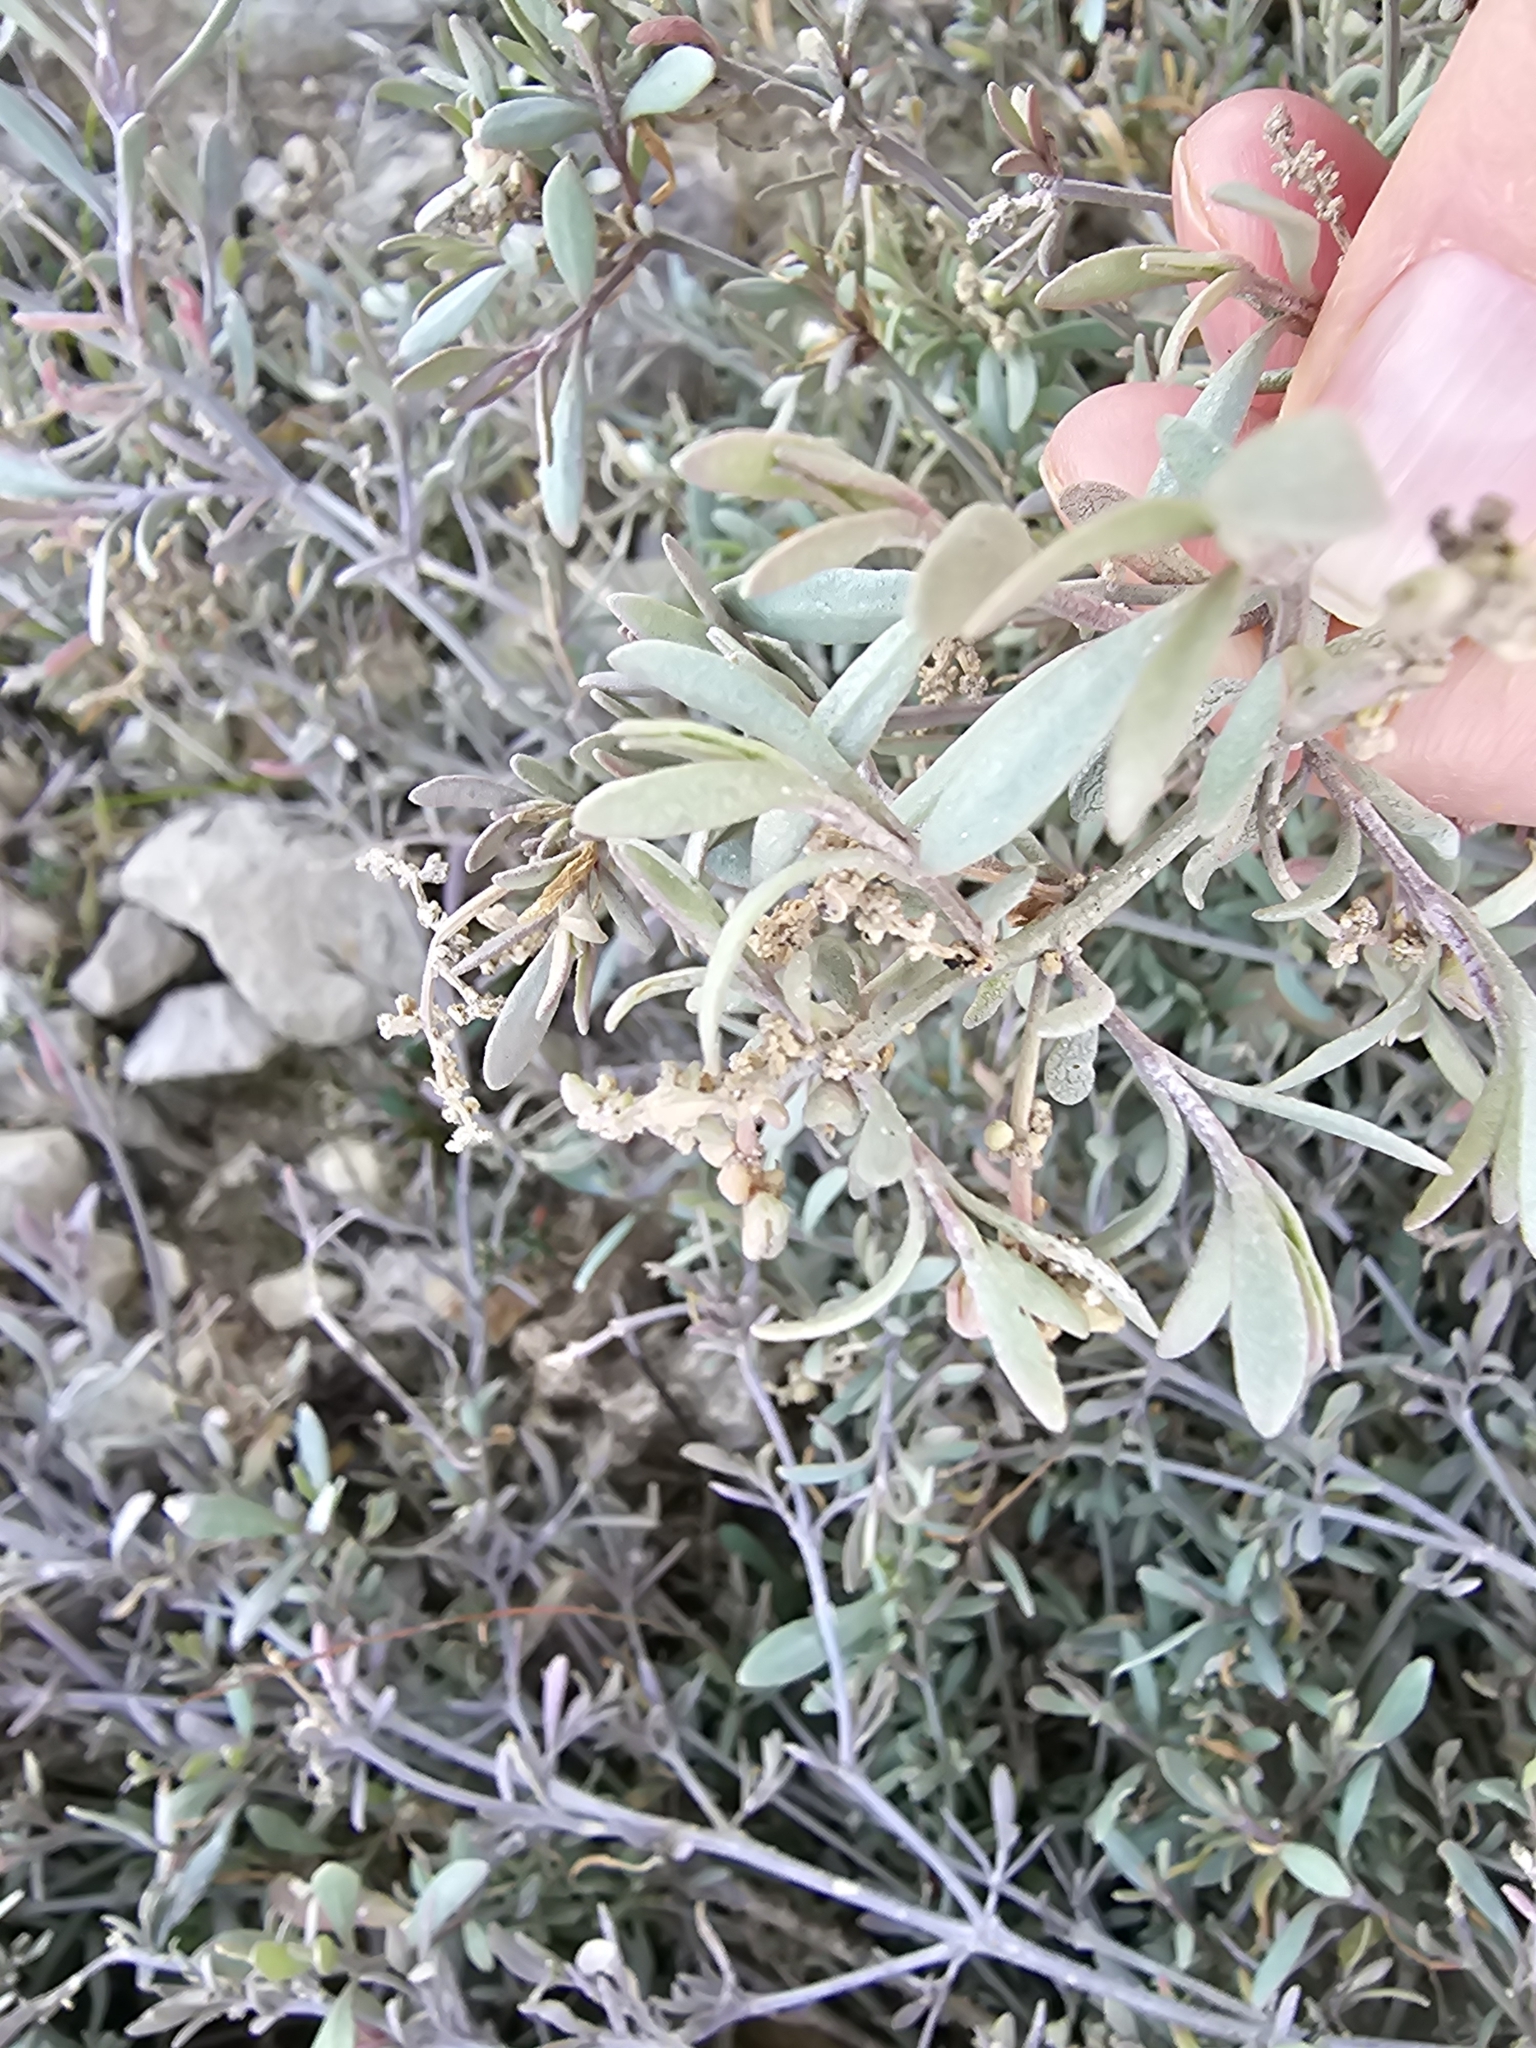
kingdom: Plantae
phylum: Tracheophyta
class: Magnoliopsida
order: Caryophyllales
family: Amaranthaceae
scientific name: Amaranthaceae
